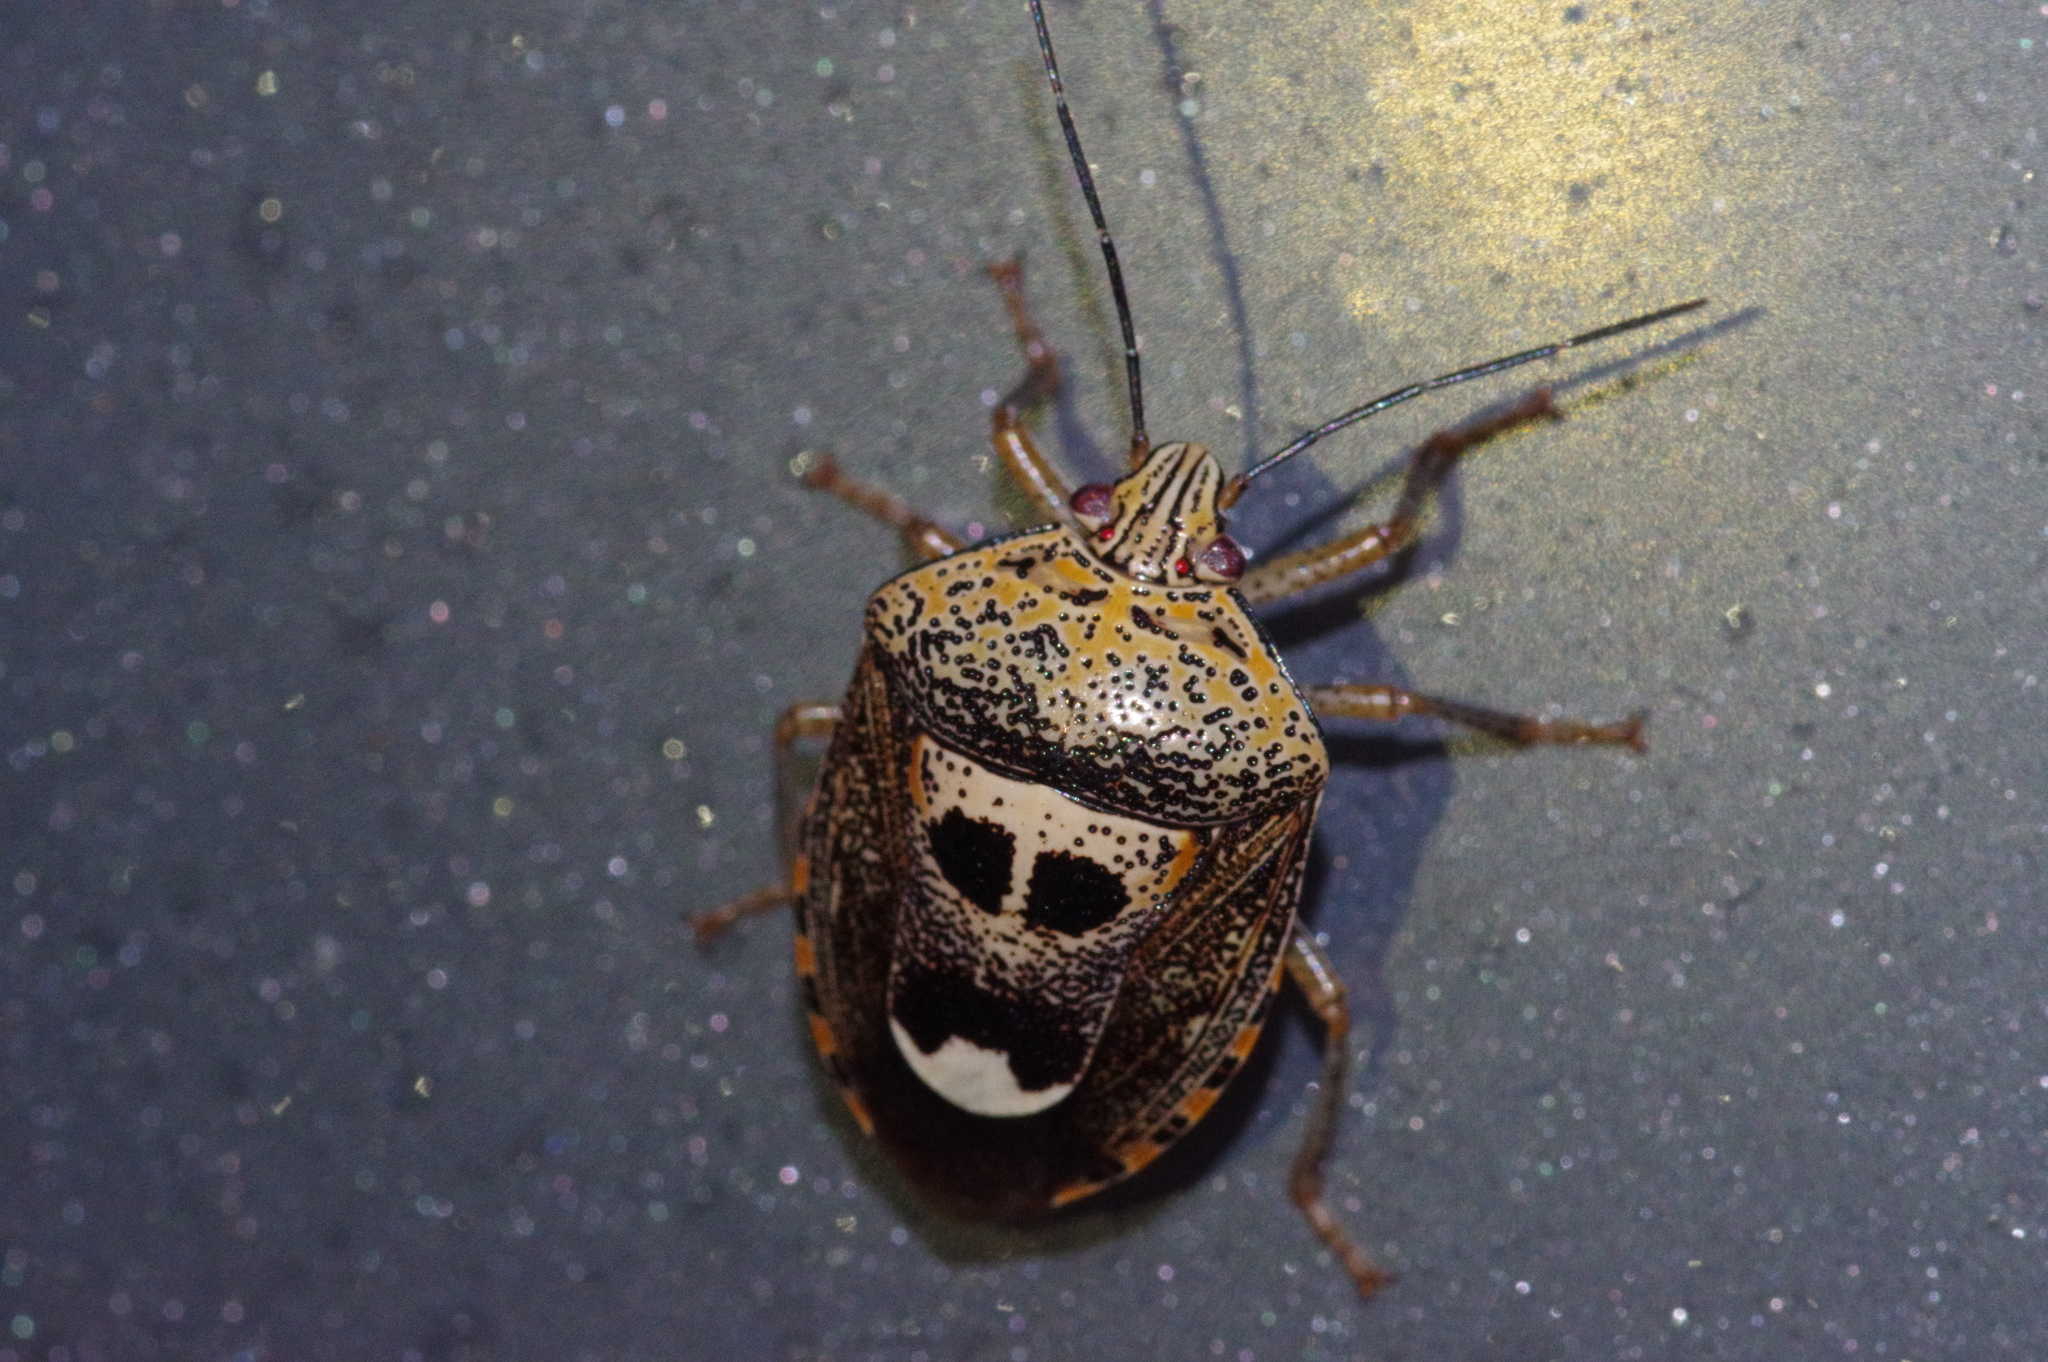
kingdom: Animalia
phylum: Arthropoda
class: Insecta
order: Hemiptera
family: Pentatomidae
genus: Axiagastus
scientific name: Axiagastus rosmarus
